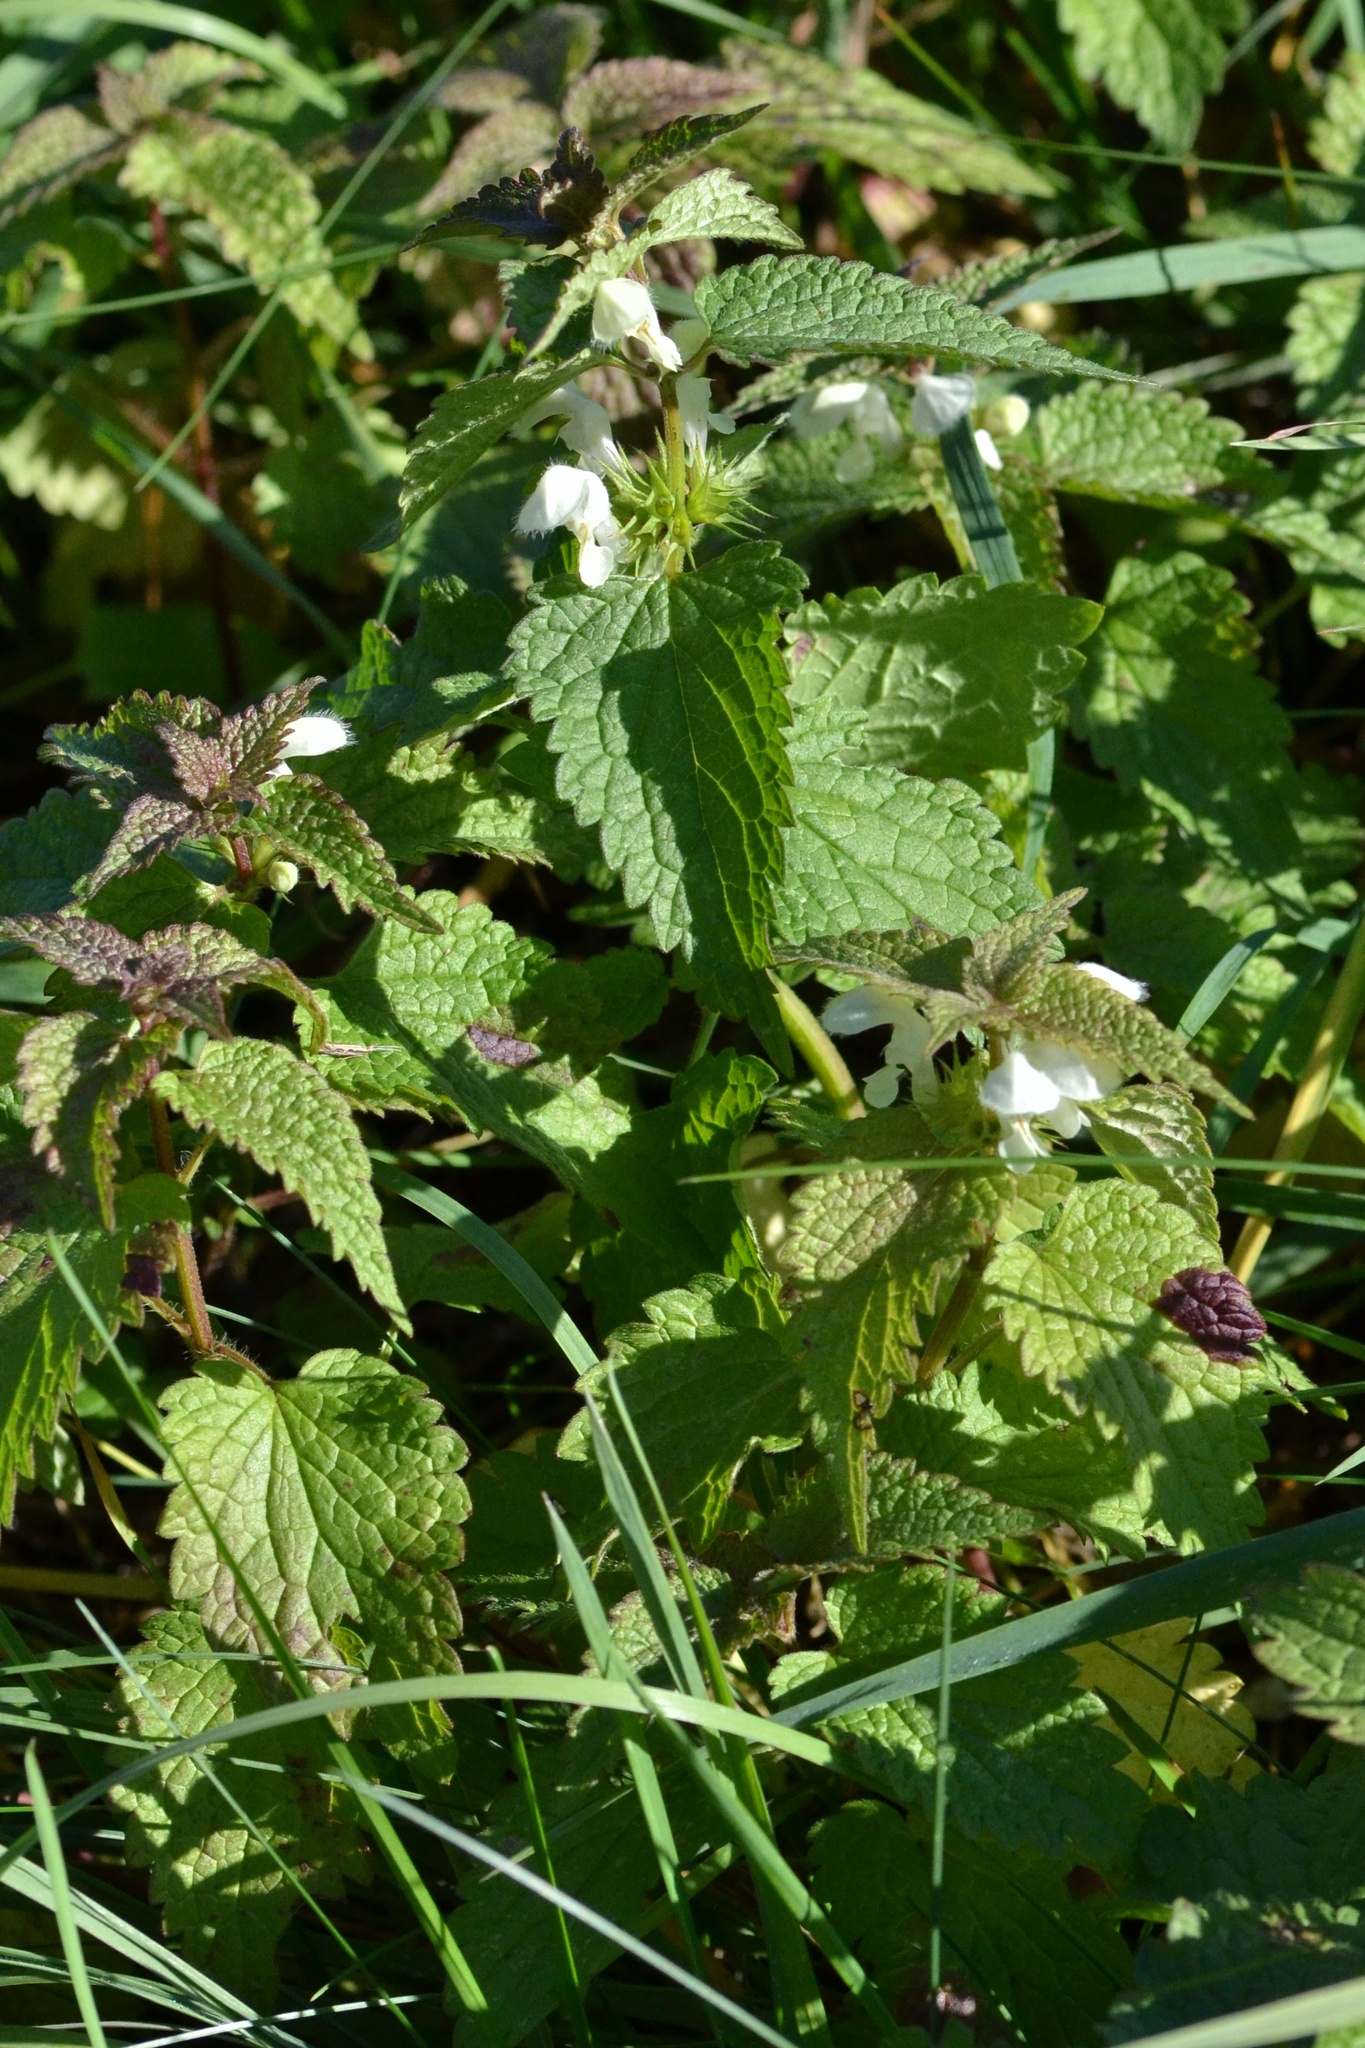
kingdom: Plantae
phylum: Tracheophyta
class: Magnoliopsida
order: Lamiales
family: Lamiaceae
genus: Lamium
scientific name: Lamium album
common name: White dead-nettle
